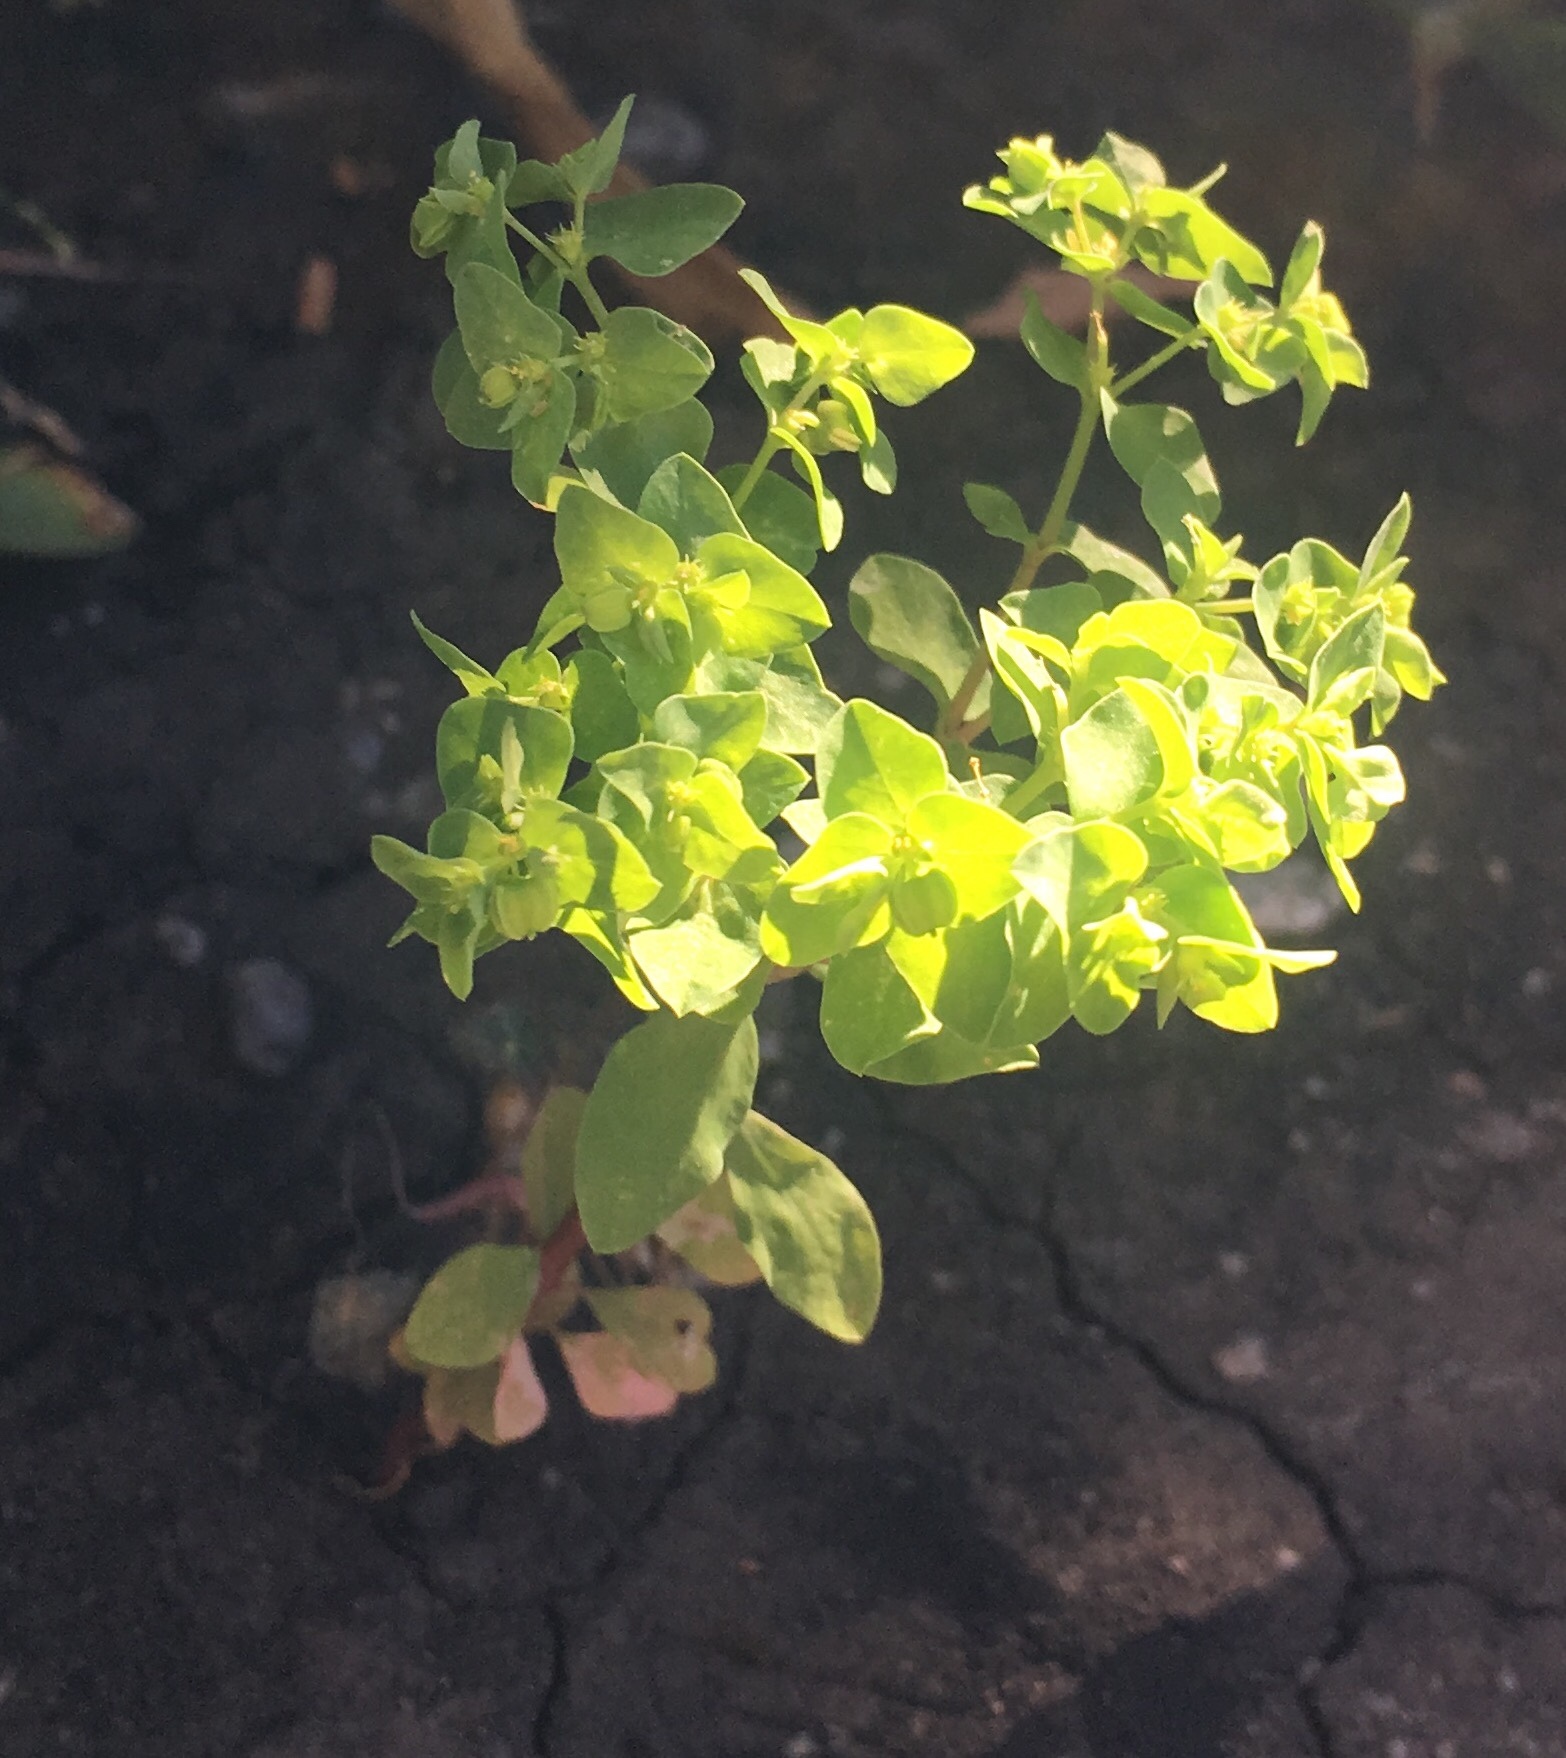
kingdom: Plantae
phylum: Tracheophyta
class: Magnoliopsida
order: Malpighiales
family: Euphorbiaceae
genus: Euphorbia
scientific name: Euphorbia peplus
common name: Petty spurge
